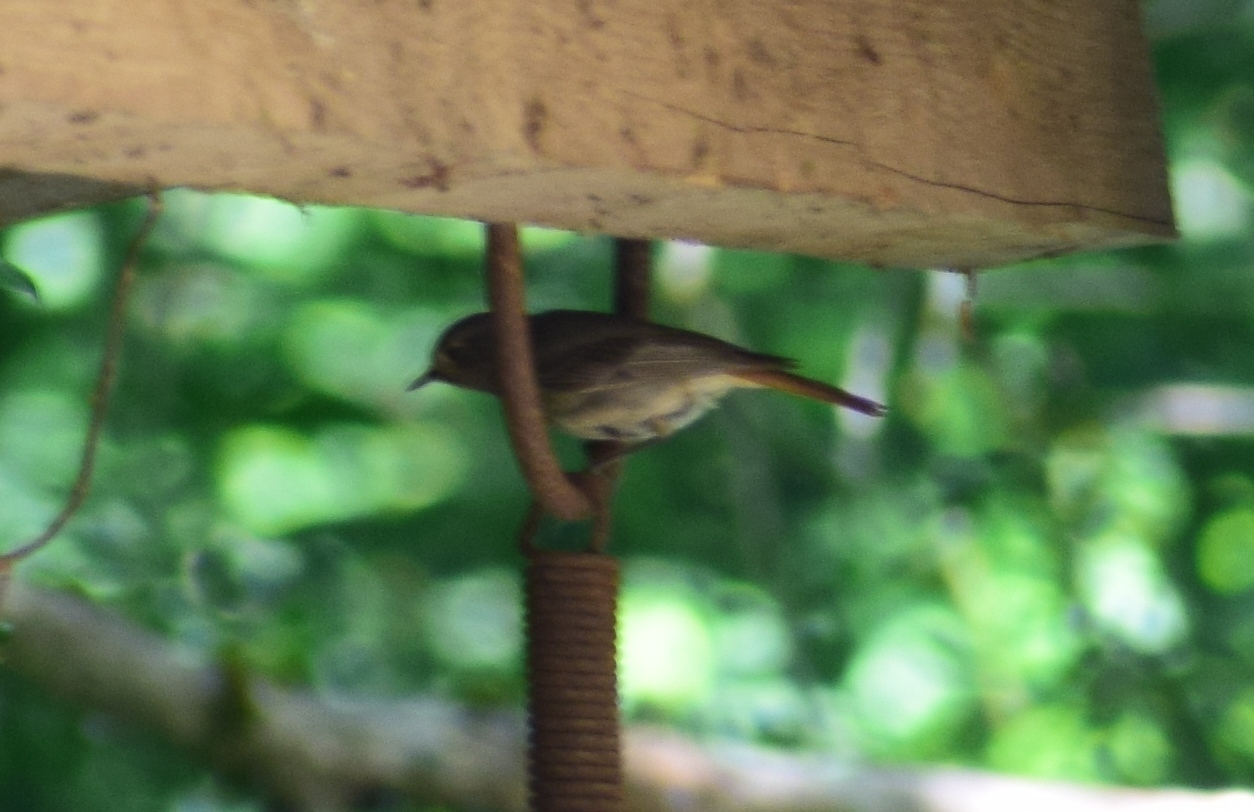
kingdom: Animalia
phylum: Chordata
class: Aves
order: Passeriformes
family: Muscicapidae
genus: Phoenicurus
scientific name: Phoenicurus ochruros
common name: Black redstart
